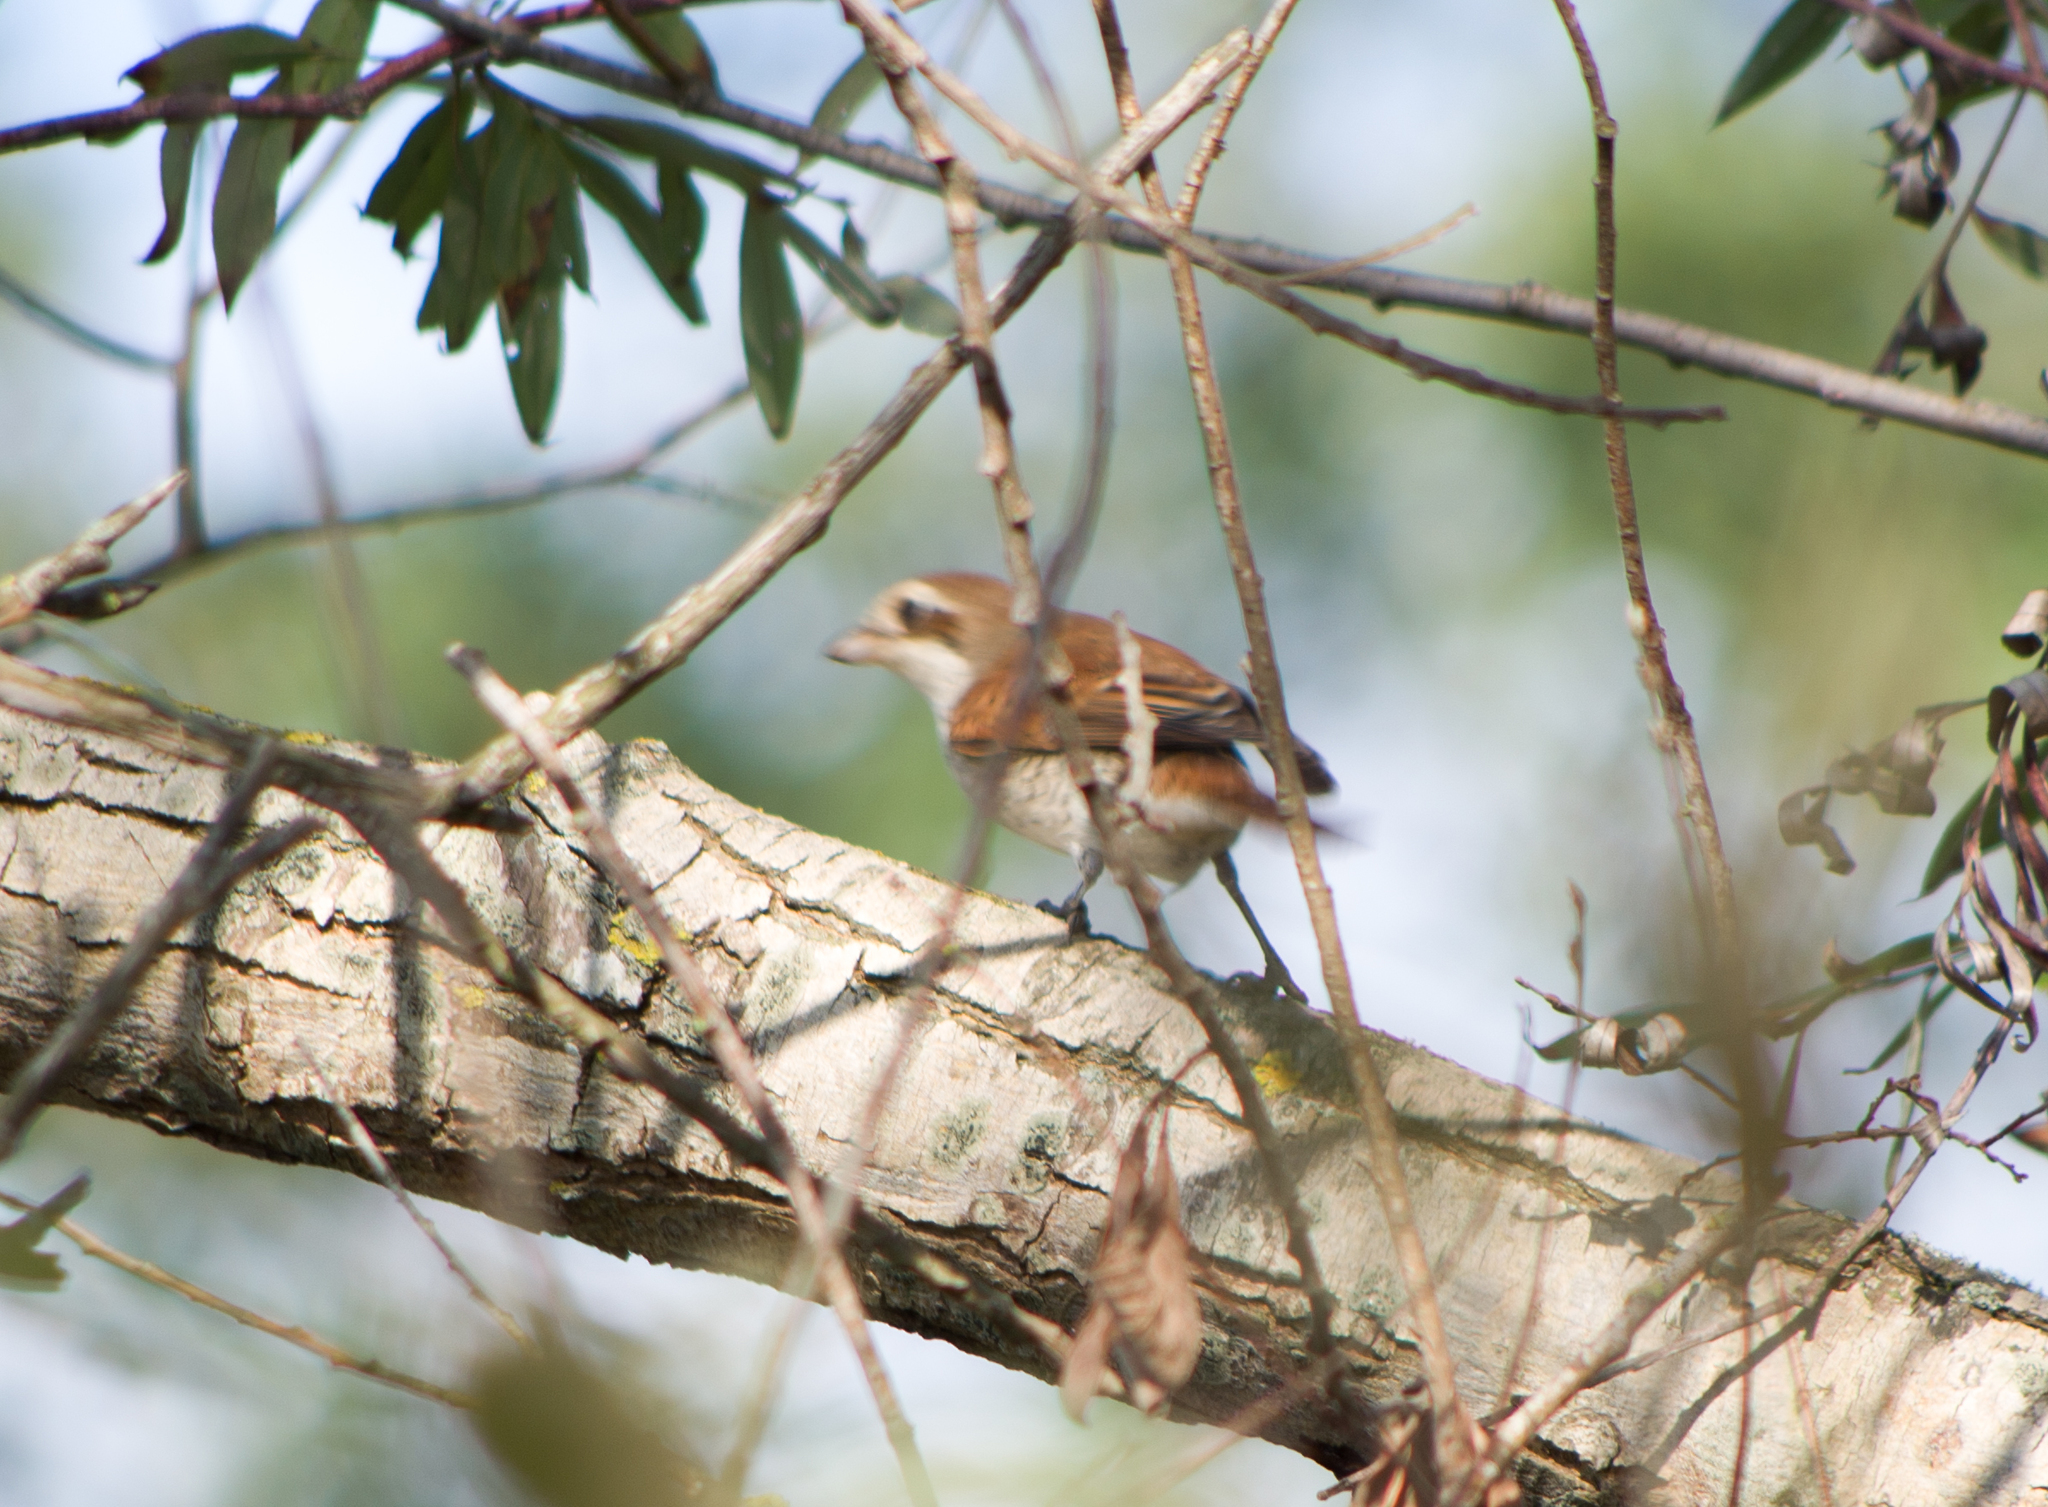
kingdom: Animalia
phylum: Chordata
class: Aves
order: Passeriformes
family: Laniidae
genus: Lanius
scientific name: Lanius collurio
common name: Red-backed shrike
